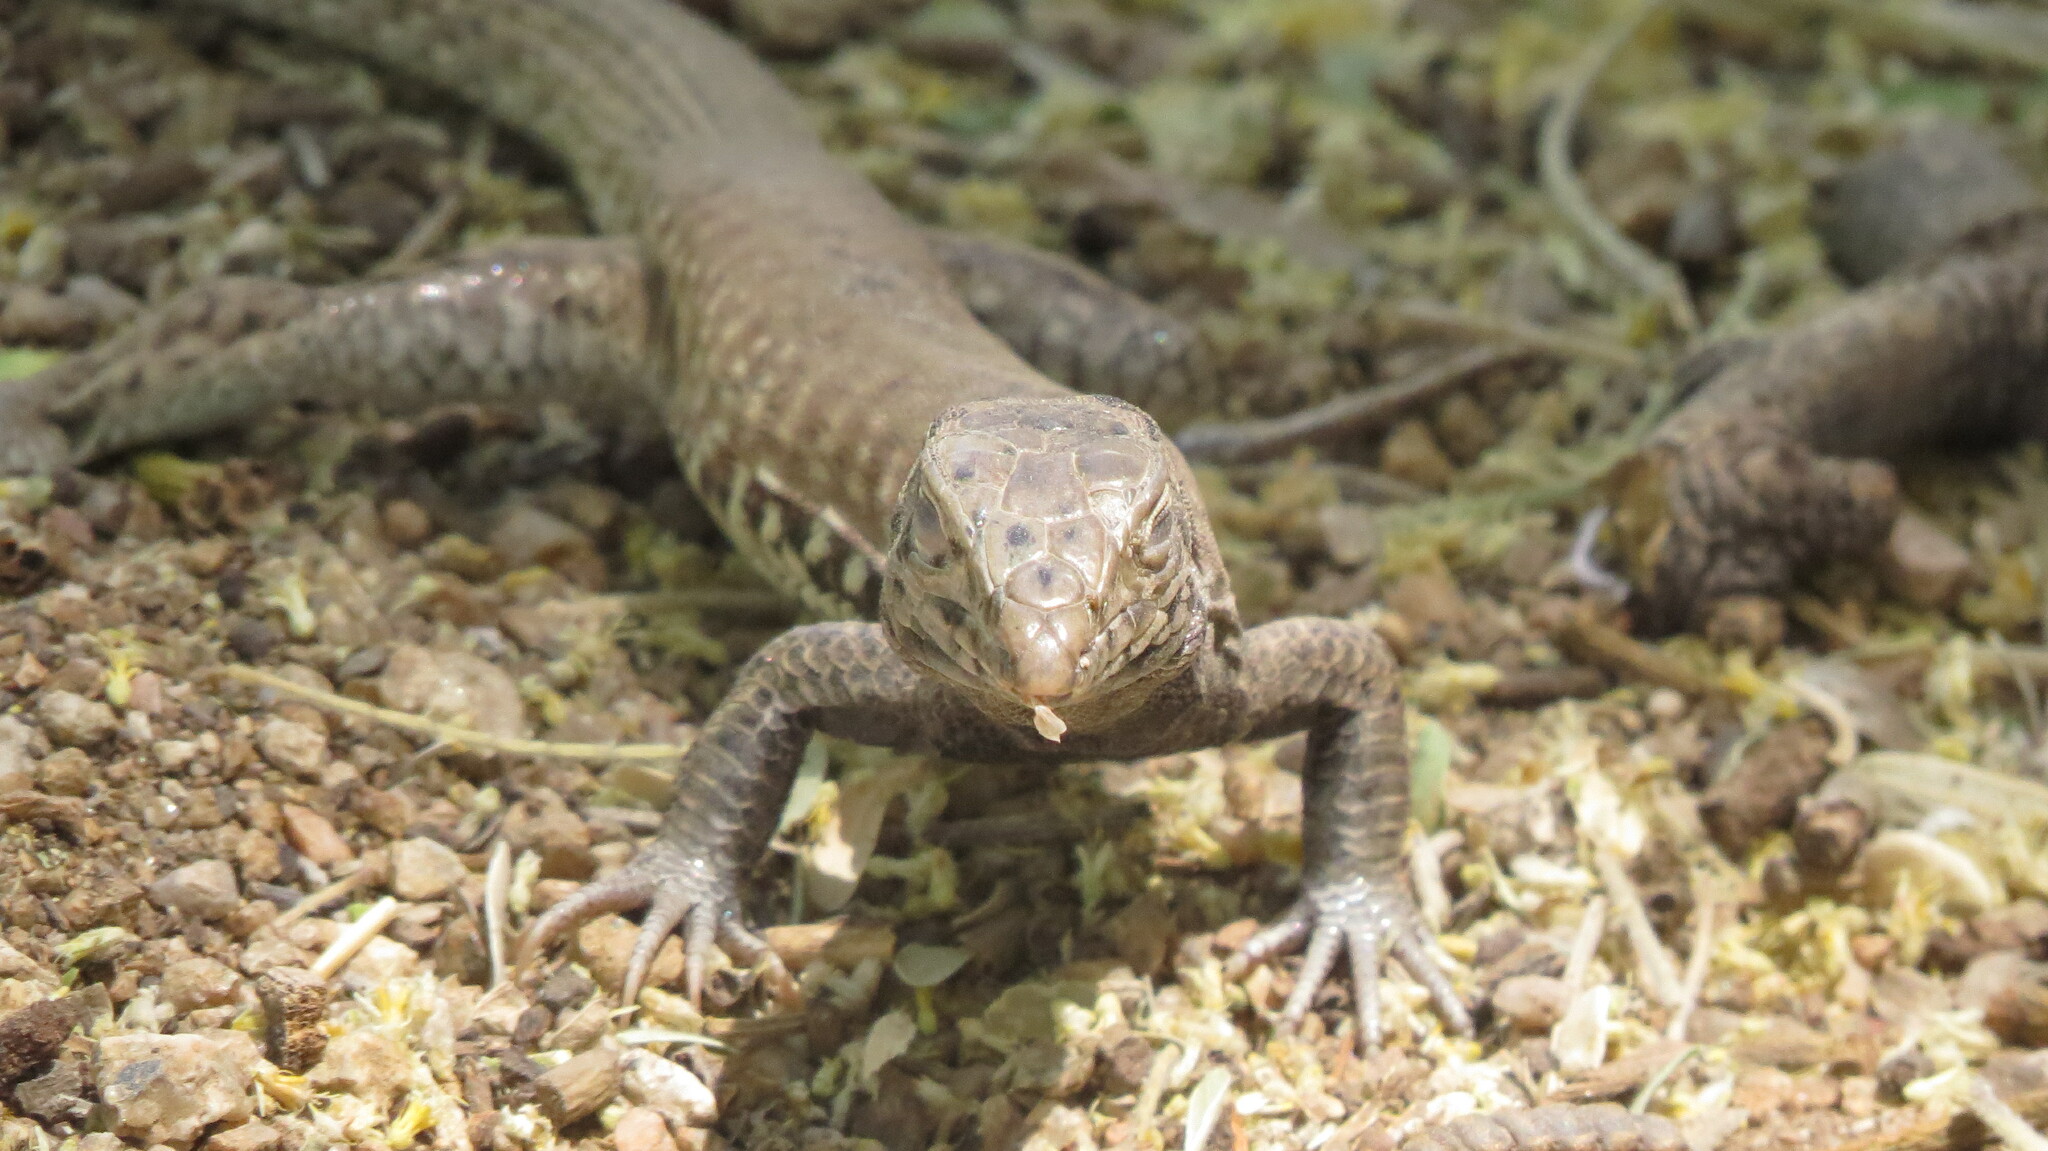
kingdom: Animalia
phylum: Chordata
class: Squamata
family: Teiidae
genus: Aspidoscelis
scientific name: Aspidoscelis tigris
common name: Tiger whiptail
